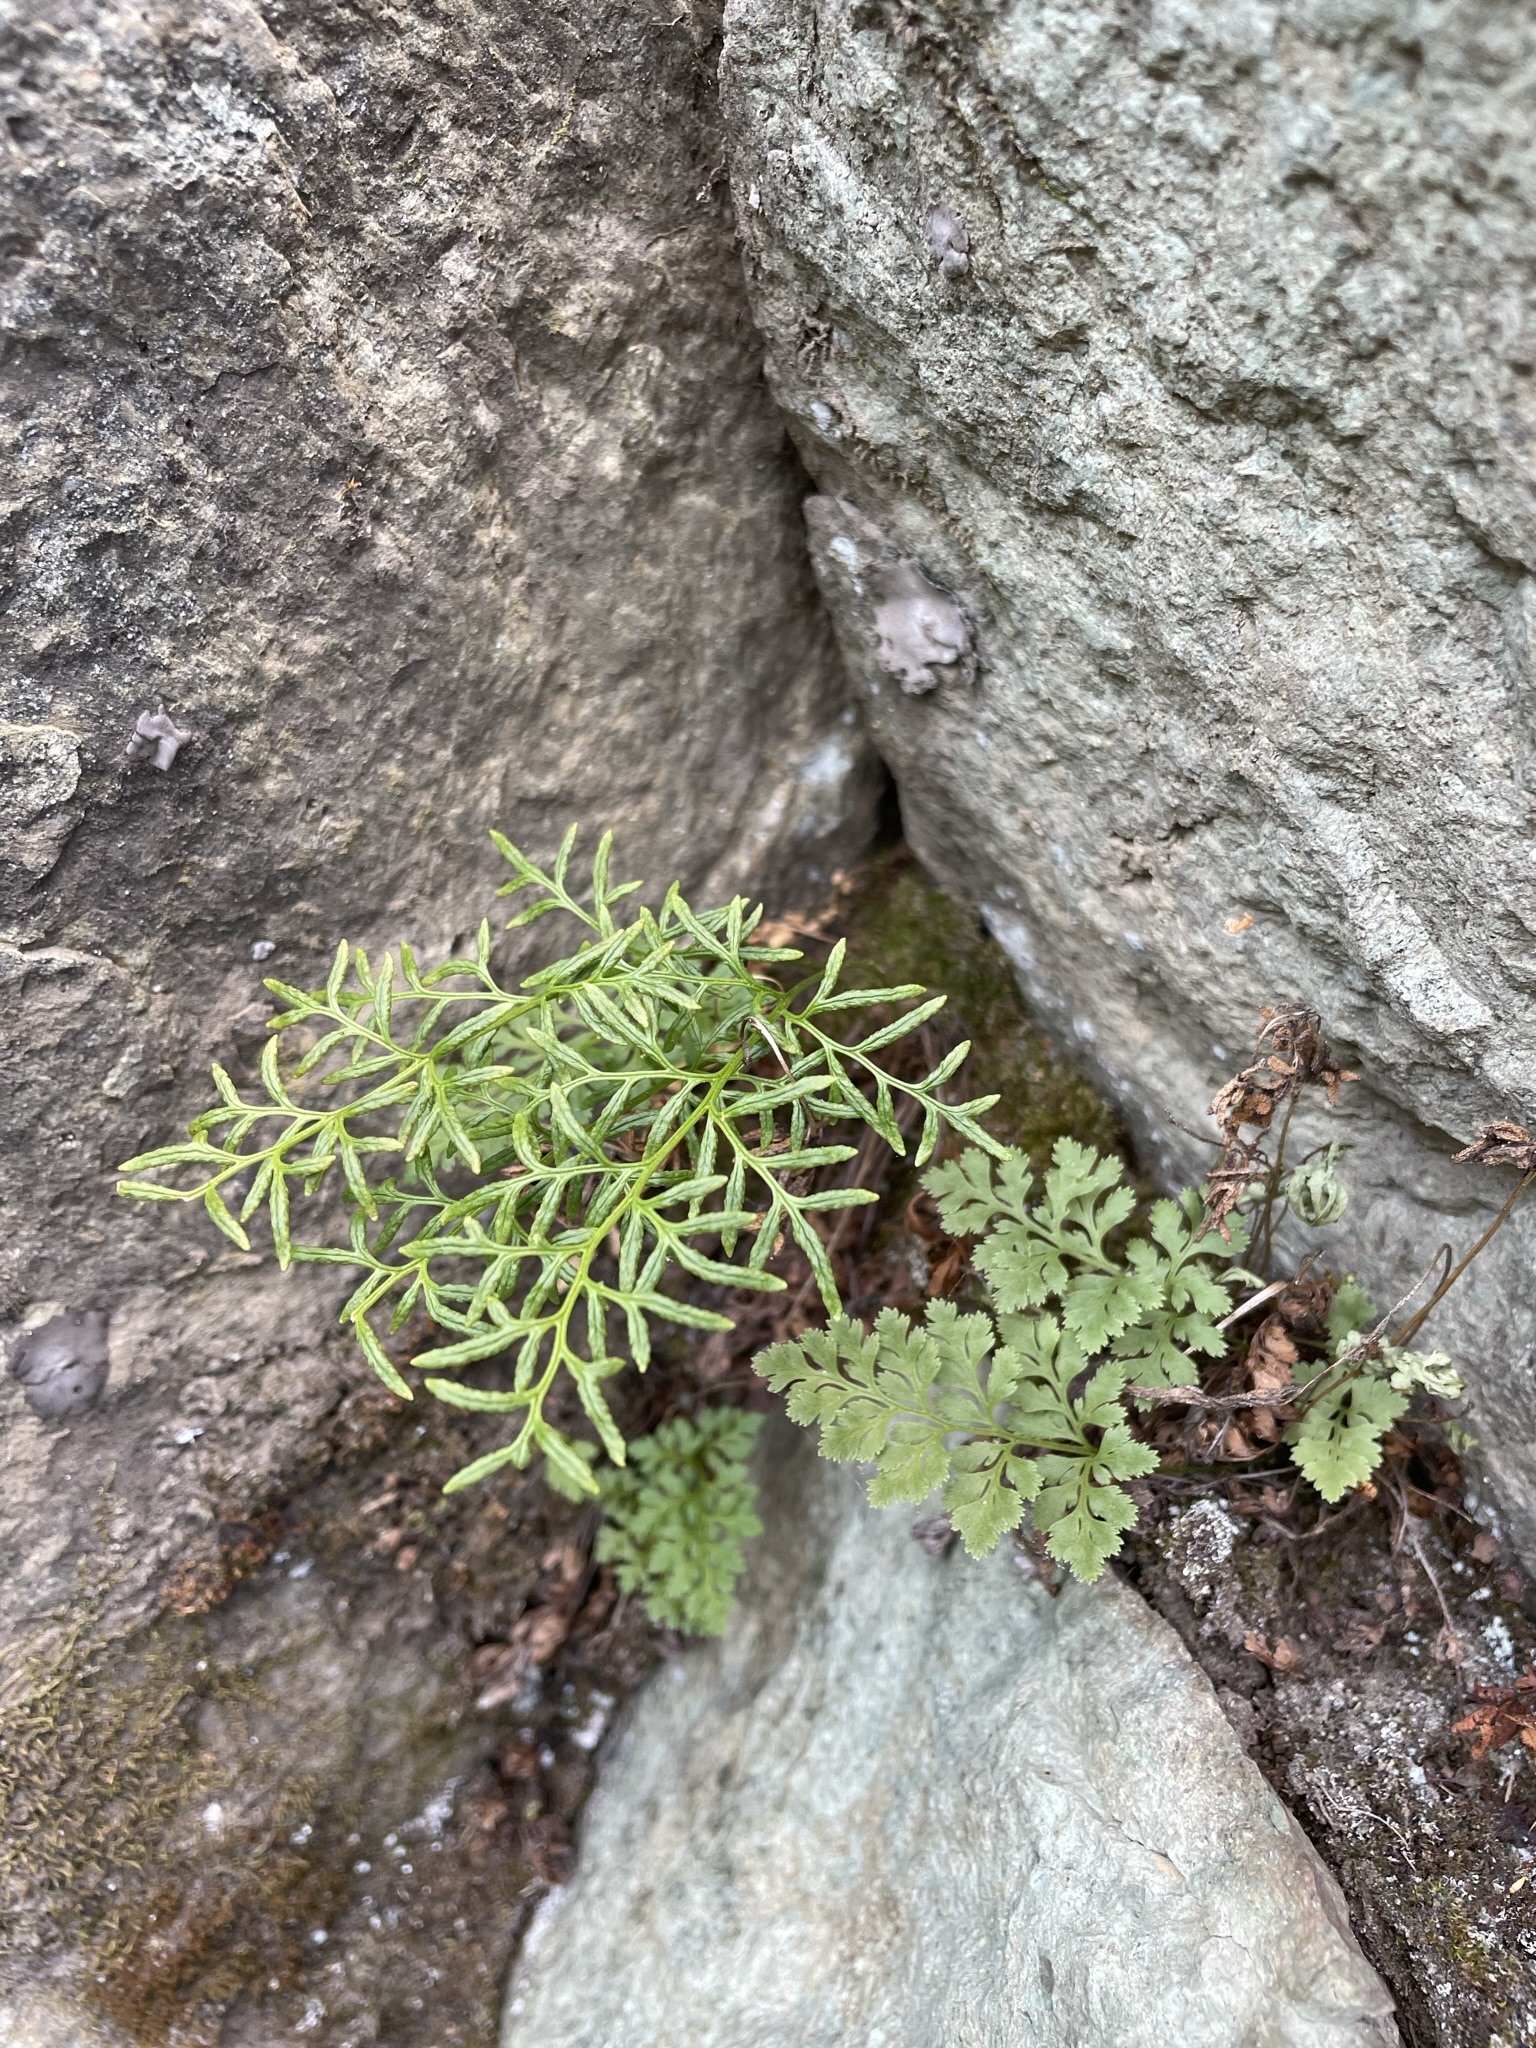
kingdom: Plantae
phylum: Tracheophyta
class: Polypodiopsida
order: Polypodiales
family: Pteridaceae
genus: Cryptogramma
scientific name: Cryptogramma acrostichoides
